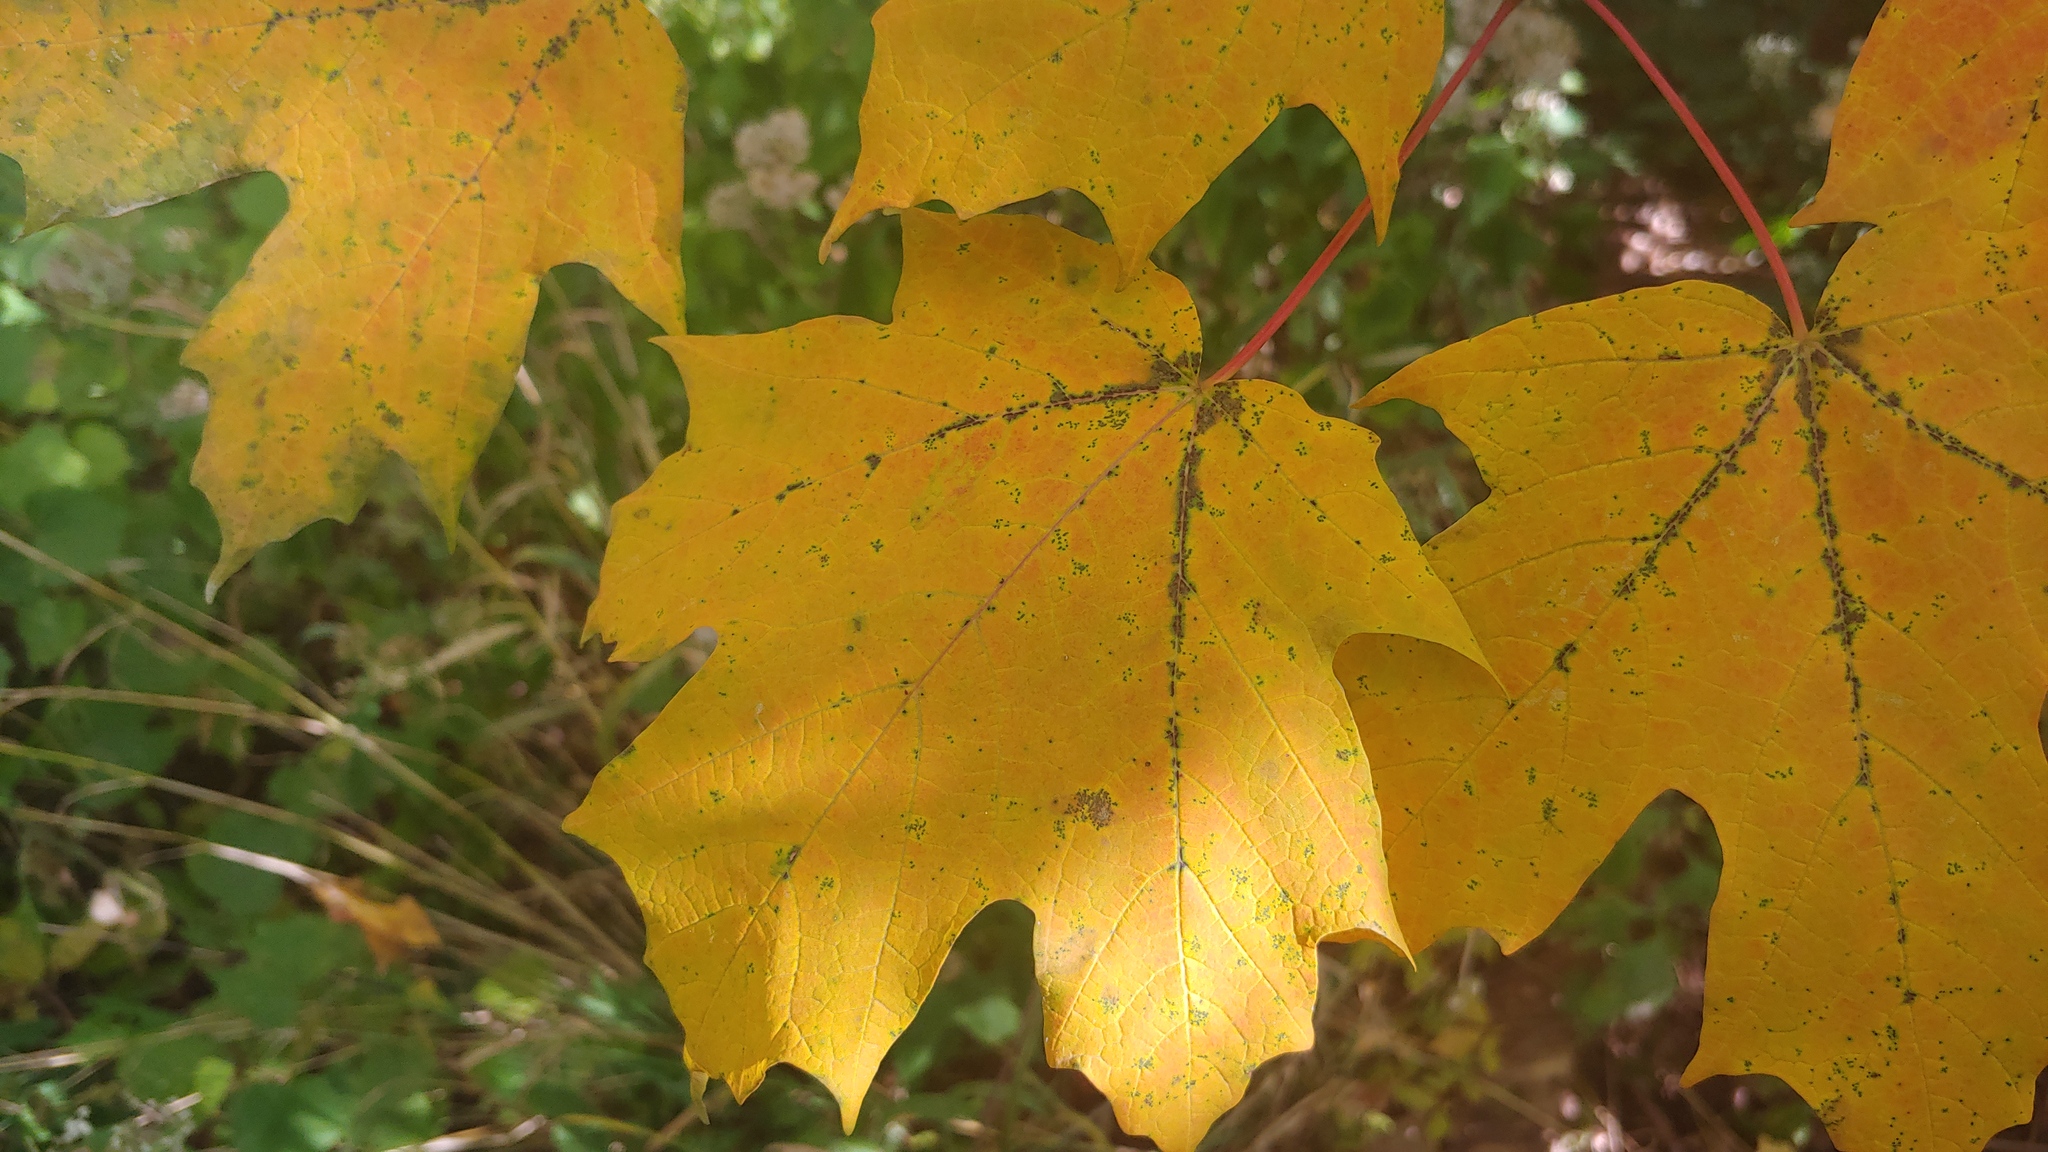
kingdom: Plantae
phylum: Tracheophyta
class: Magnoliopsida
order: Sapindales
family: Sapindaceae
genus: Acer
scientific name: Acer saccharum
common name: Sugar maple
